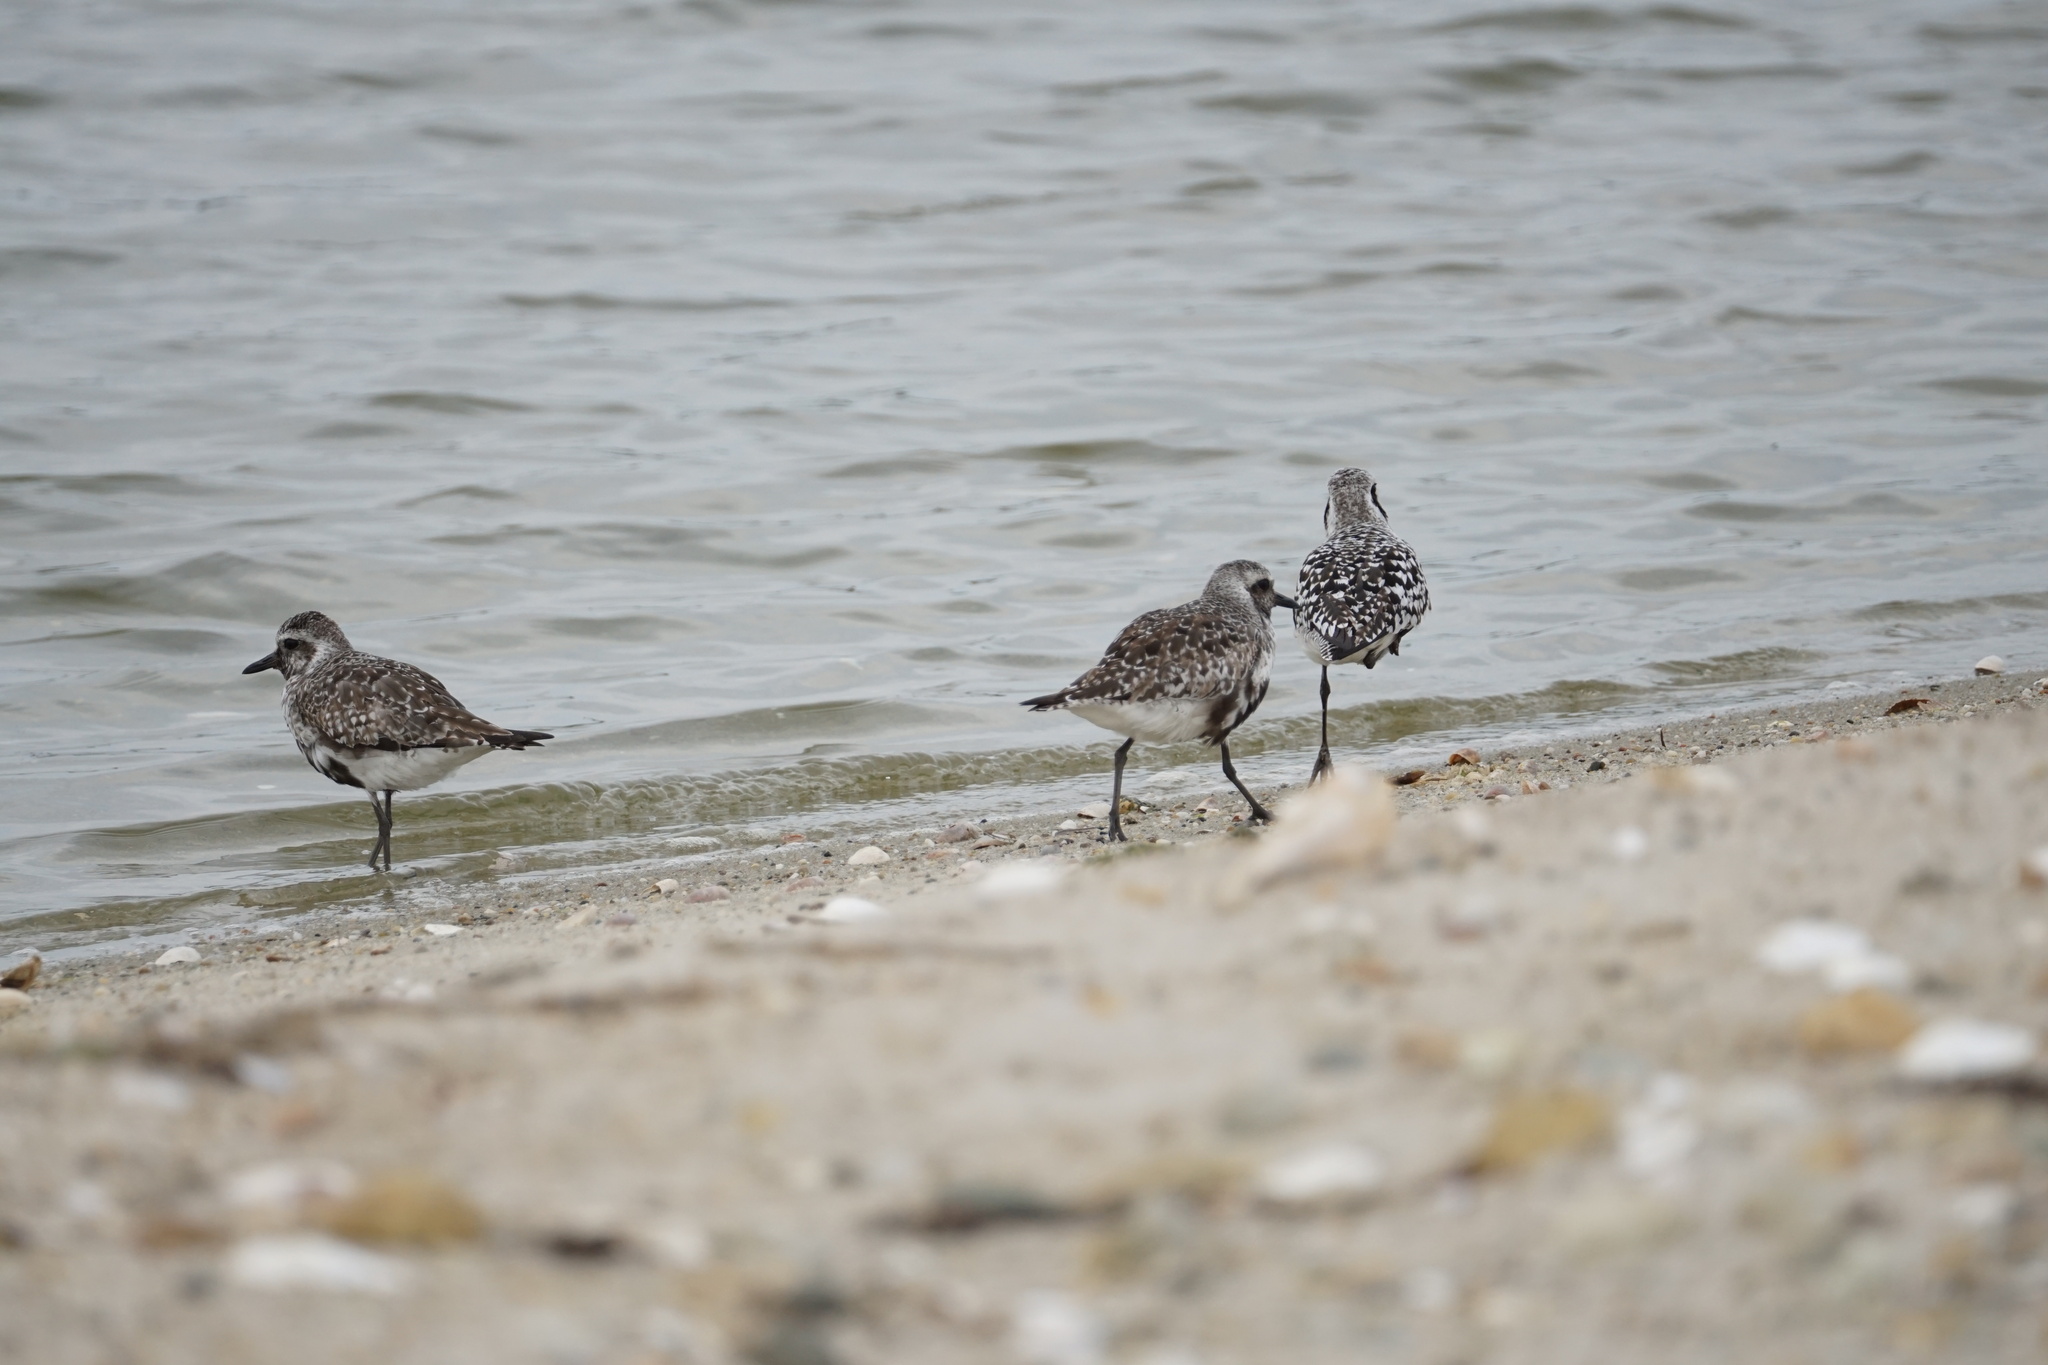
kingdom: Animalia
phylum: Chordata
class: Aves
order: Charadriiformes
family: Charadriidae
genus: Pluvialis
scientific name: Pluvialis squatarola
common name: Grey plover
